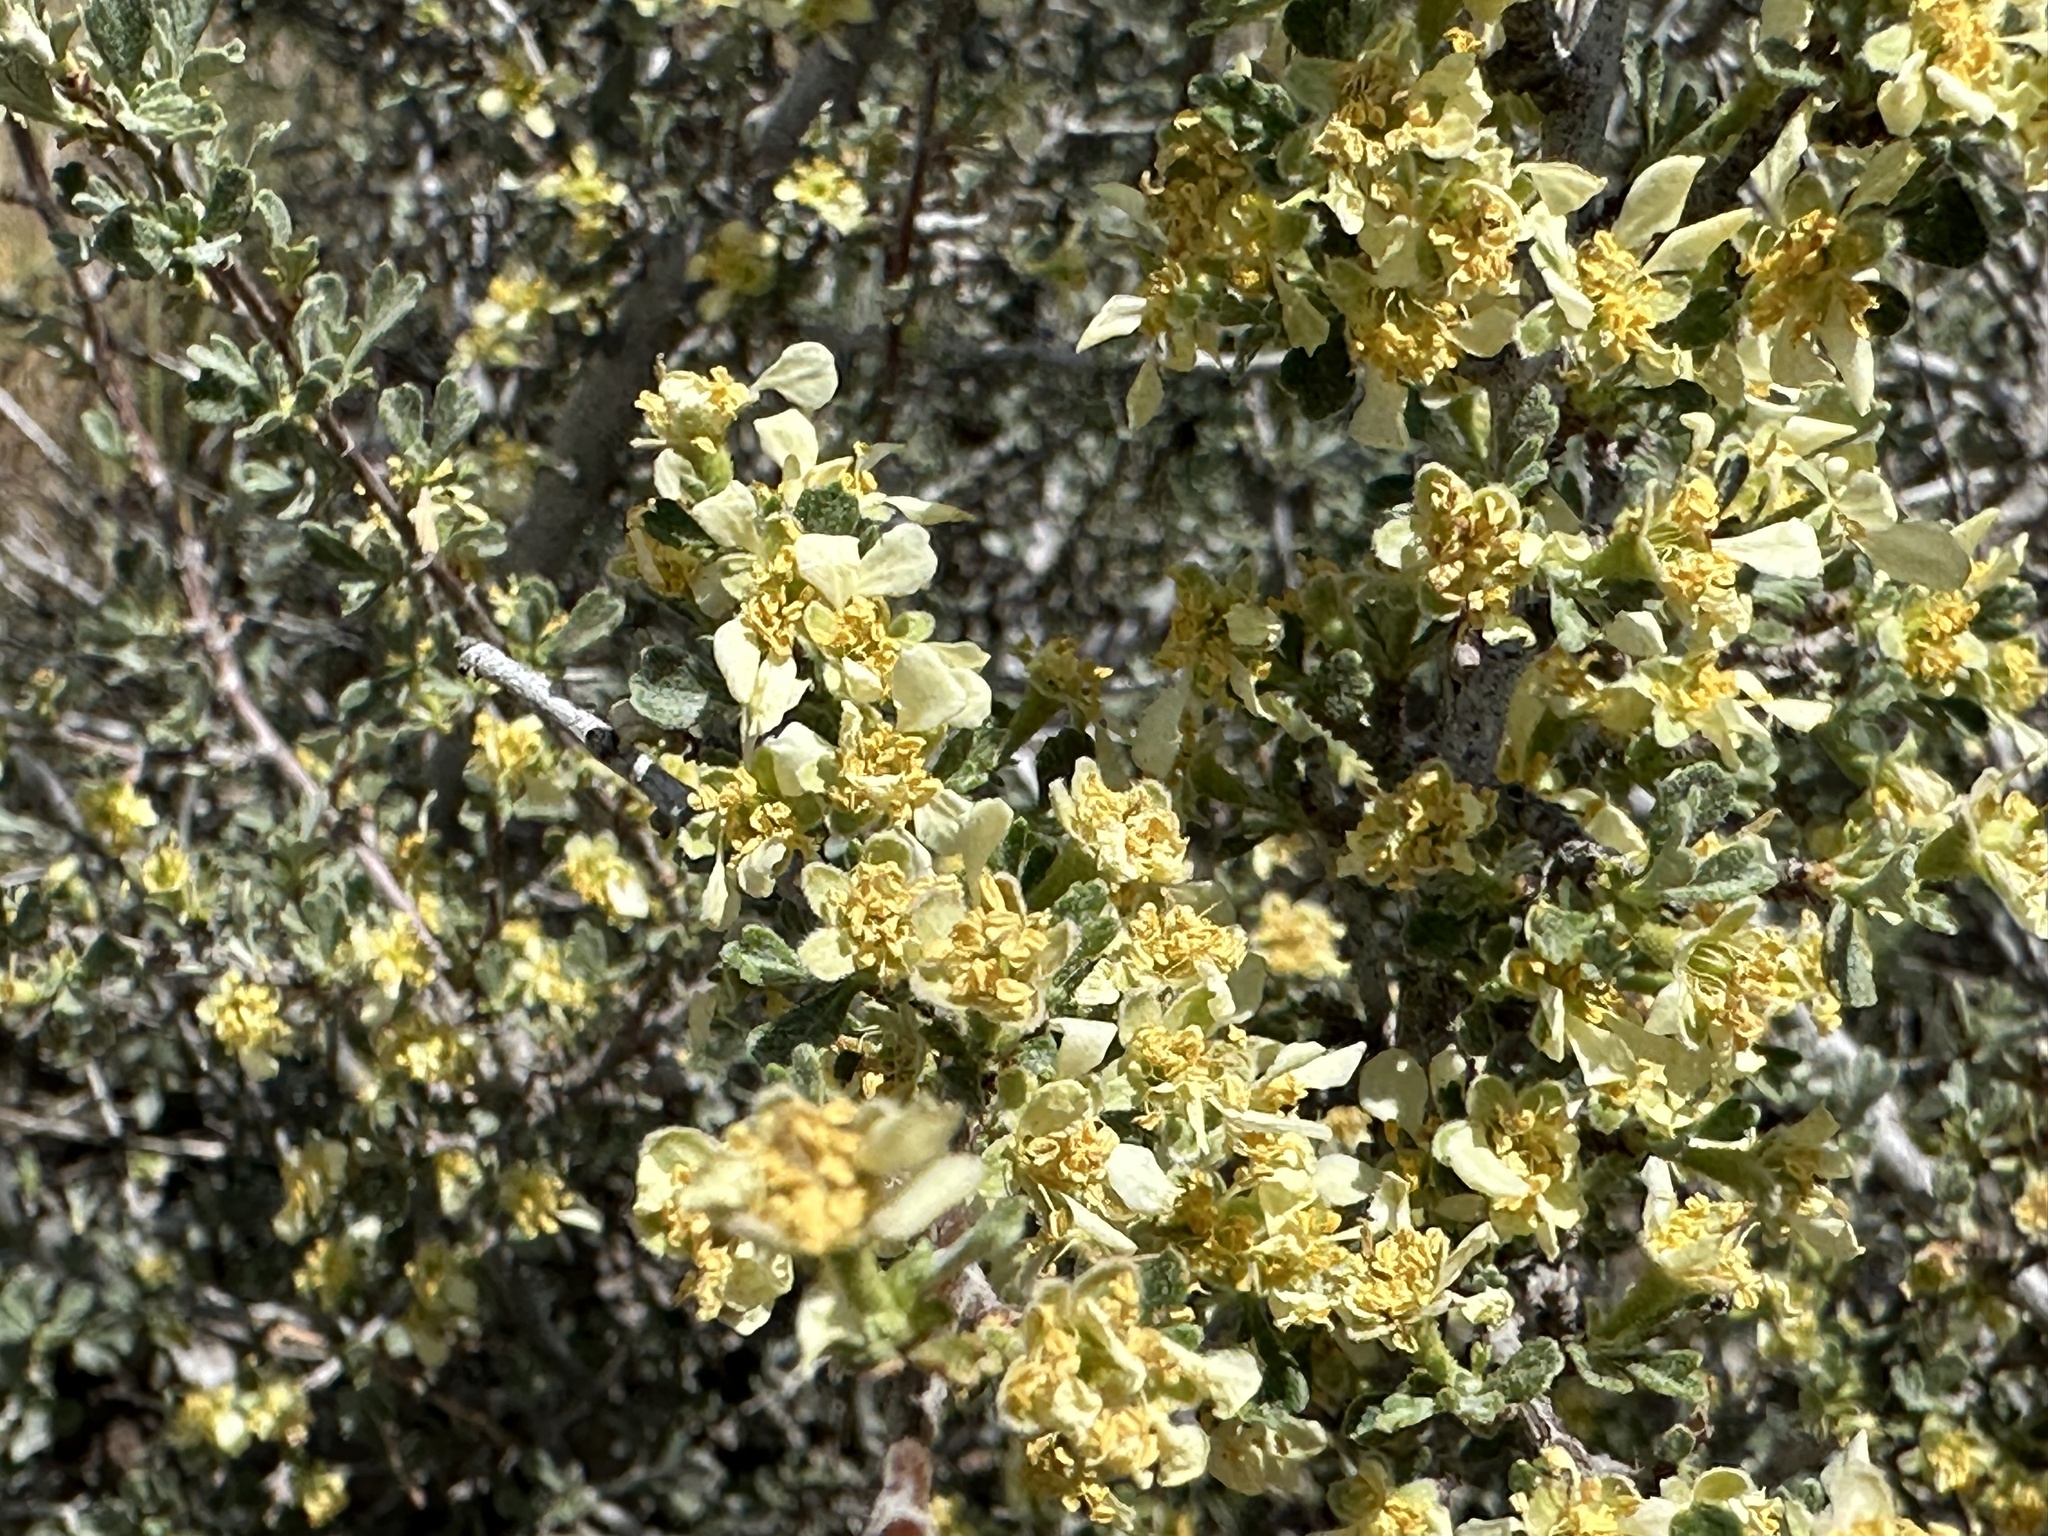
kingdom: Plantae
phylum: Tracheophyta
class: Magnoliopsida
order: Rosales
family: Rosaceae
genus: Purshia
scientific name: Purshia tridentata
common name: Antelope bitterbrush
